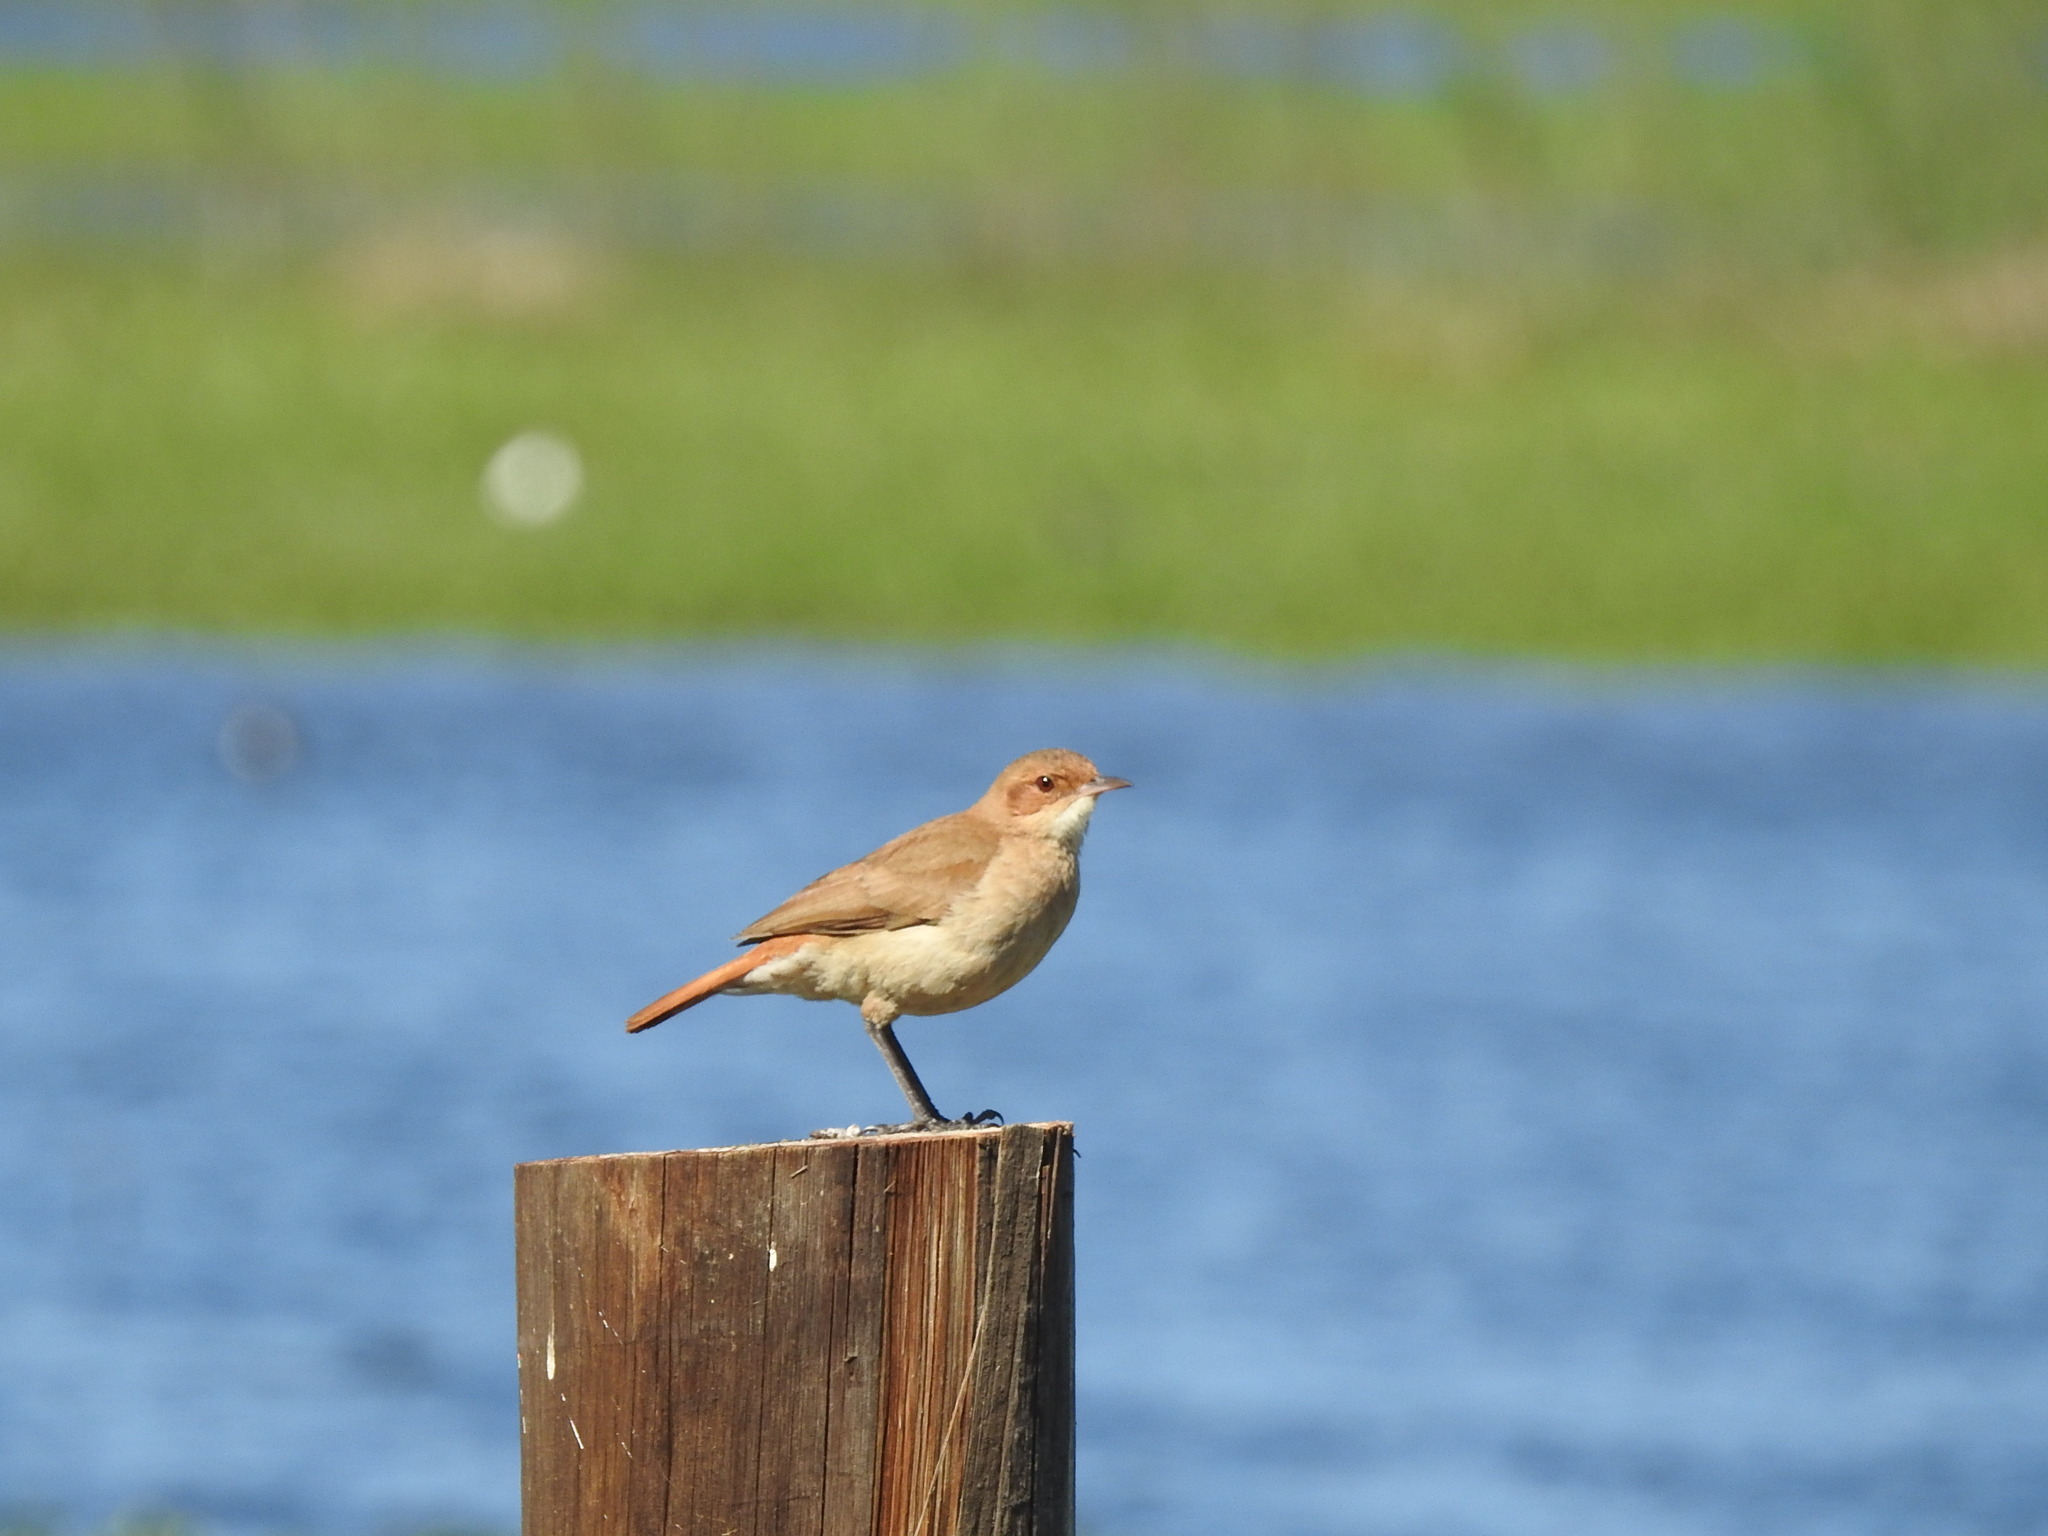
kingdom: Animalia
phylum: Chordata
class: Aves
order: Passeriformes
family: Furnariidae
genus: Furnarius
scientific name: Furnarius rufus
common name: Rufous hornero
